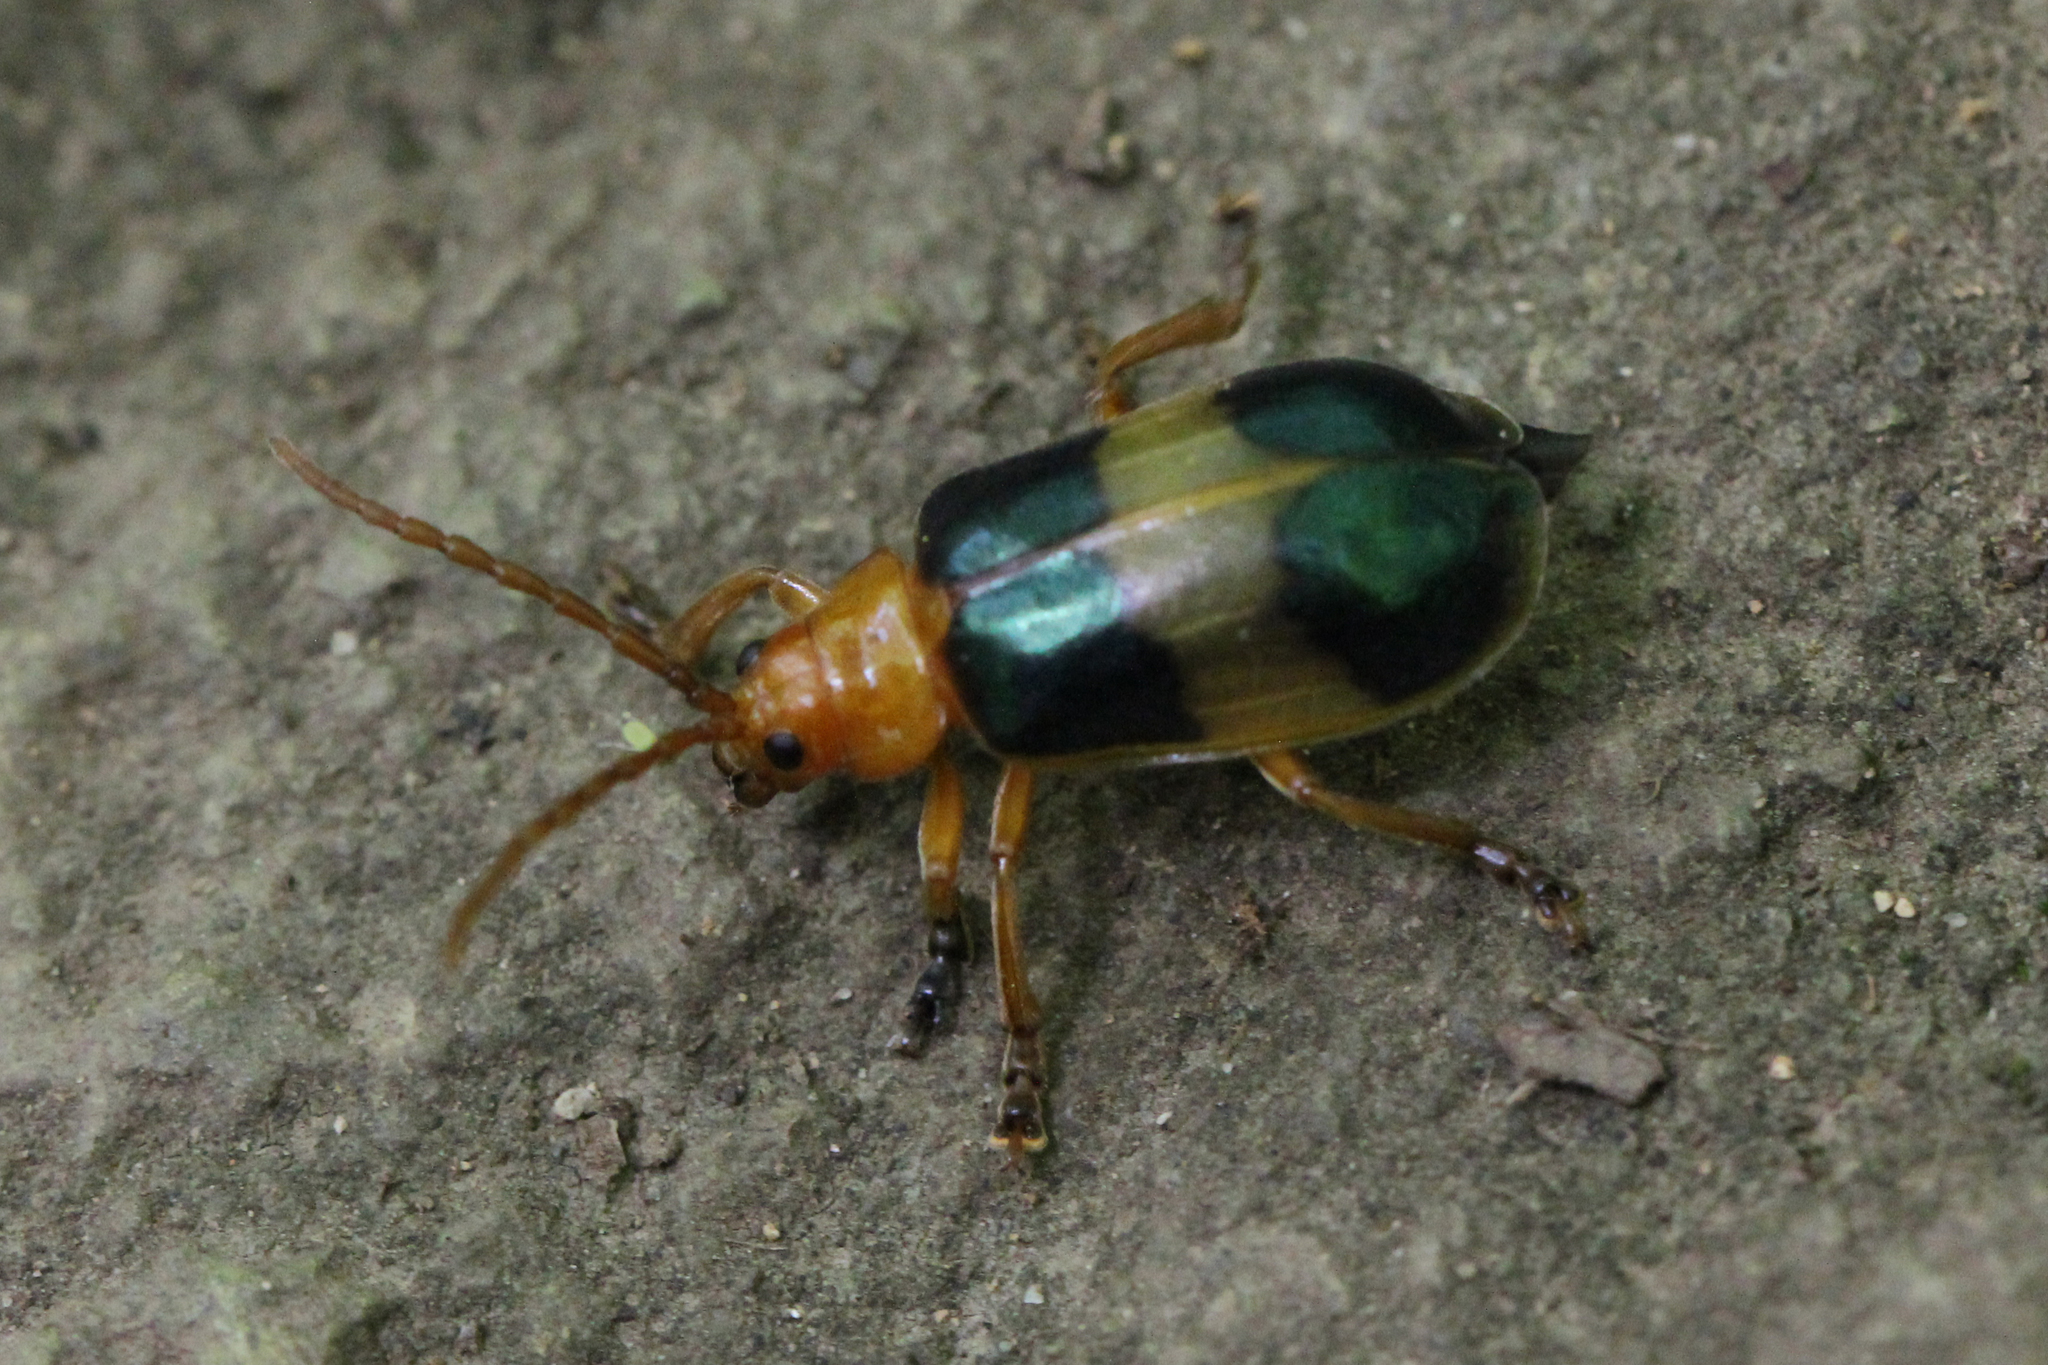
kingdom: Animalia
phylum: Arthropoda
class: Insecta
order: Coleoptera
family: Chrysomelidae
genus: Monocesta
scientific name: Monocesta coryli
